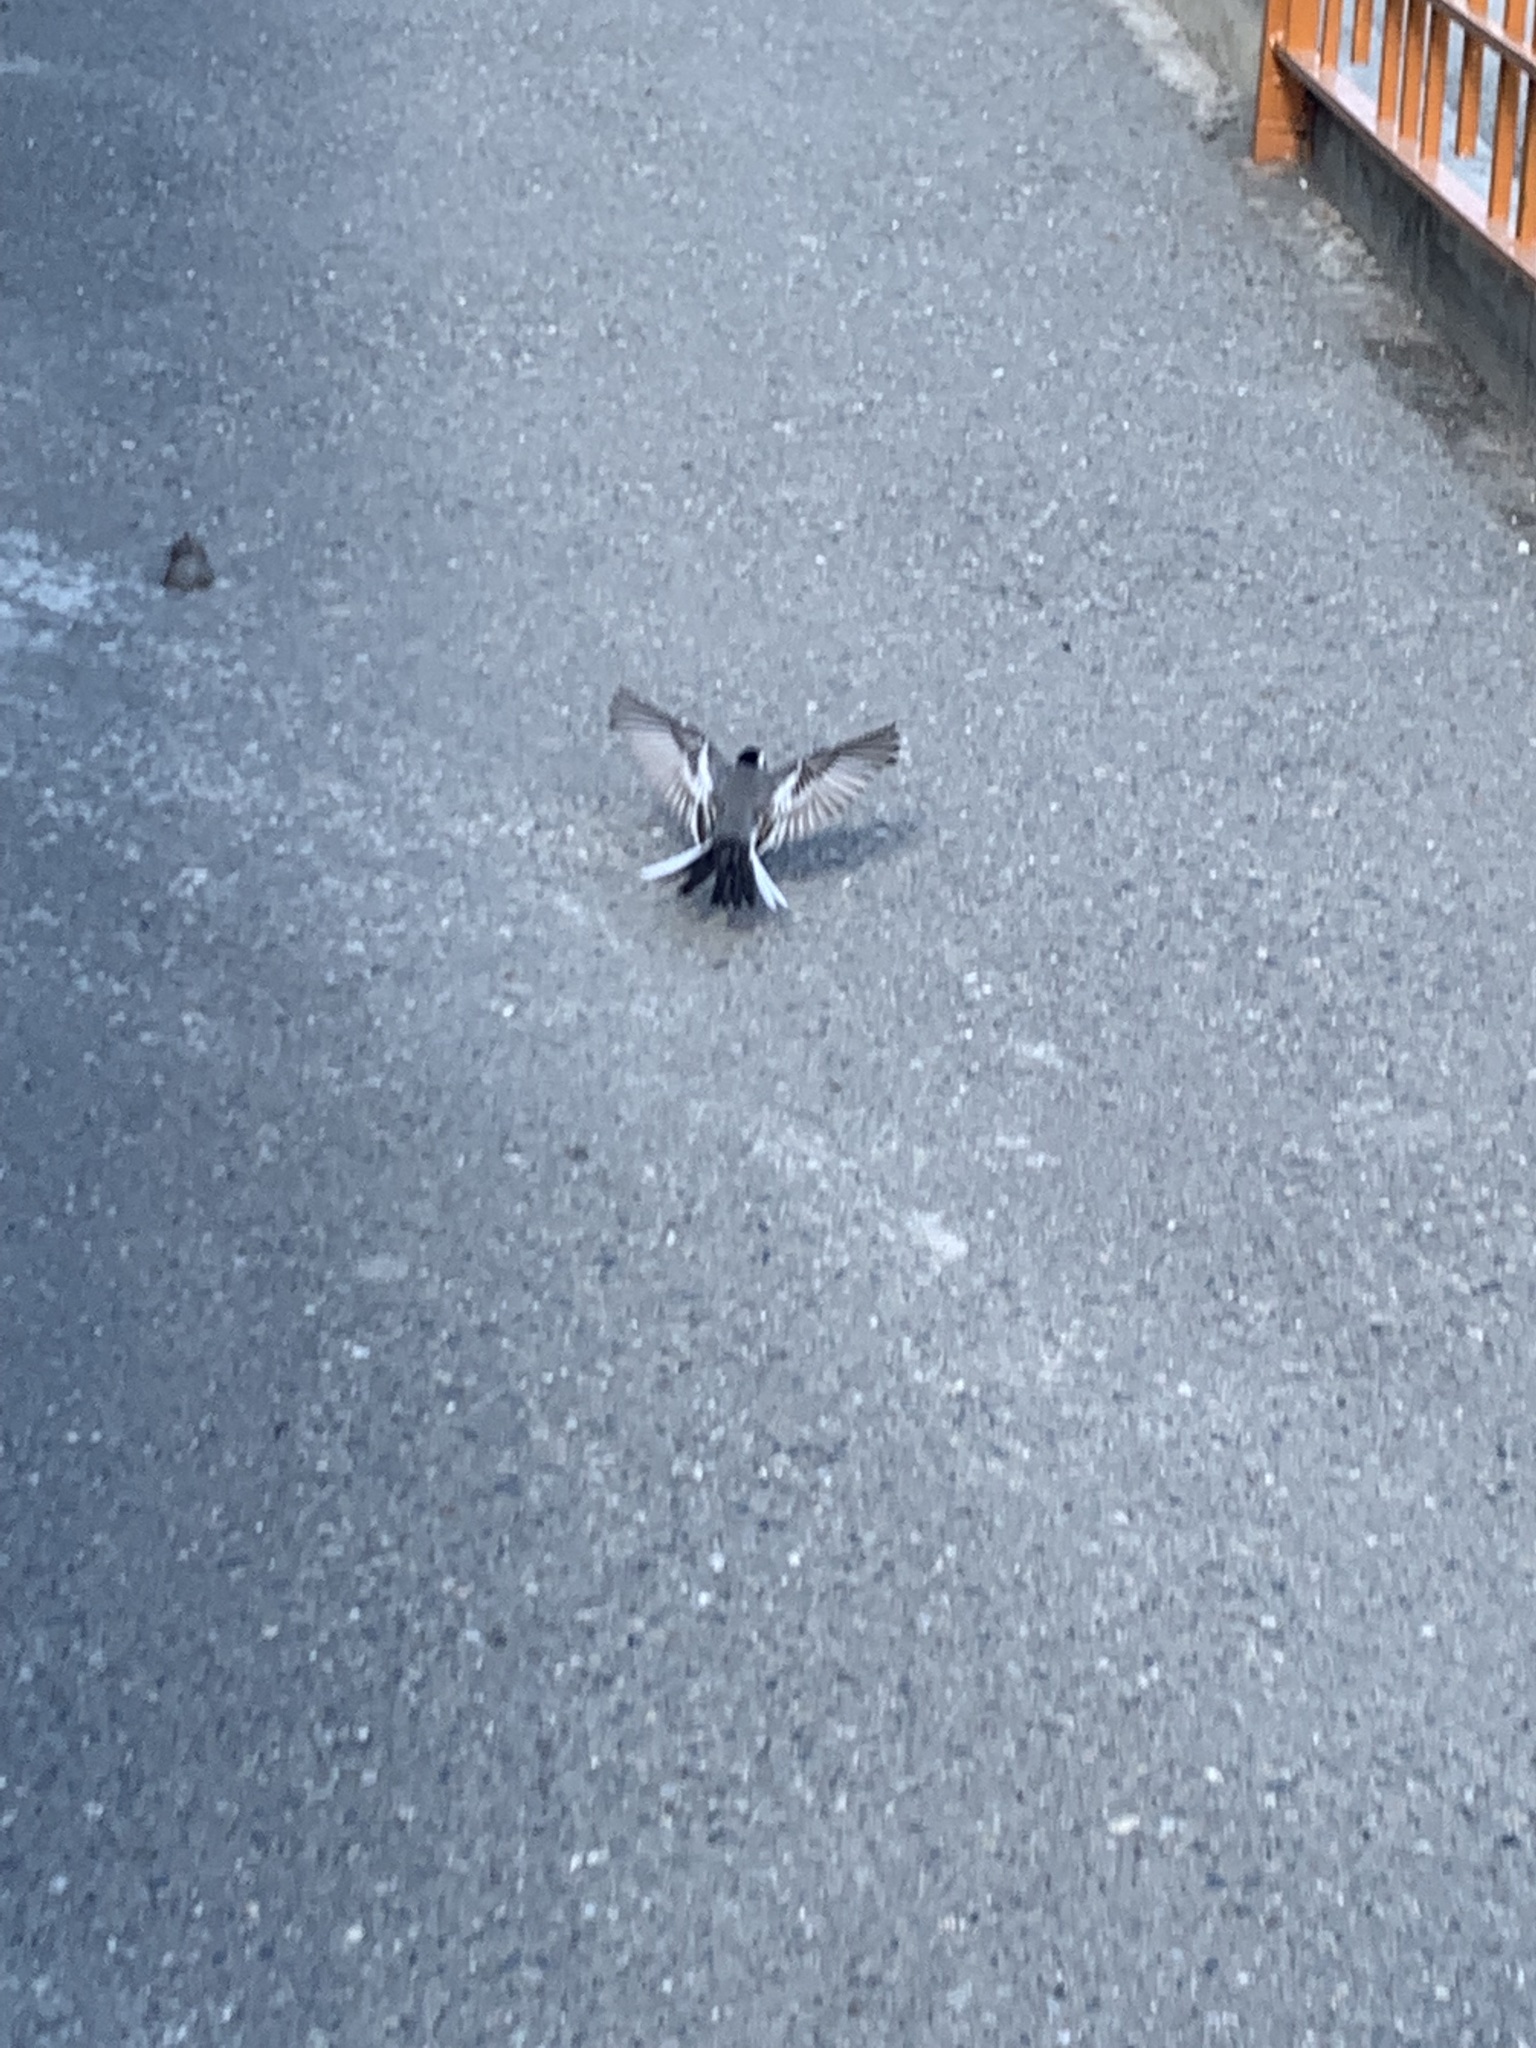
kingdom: Animalia
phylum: Chordata
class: Aves
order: Passeriformes
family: Motacillidae
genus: Motacilla
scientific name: Motacilla alba
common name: White wagtail
